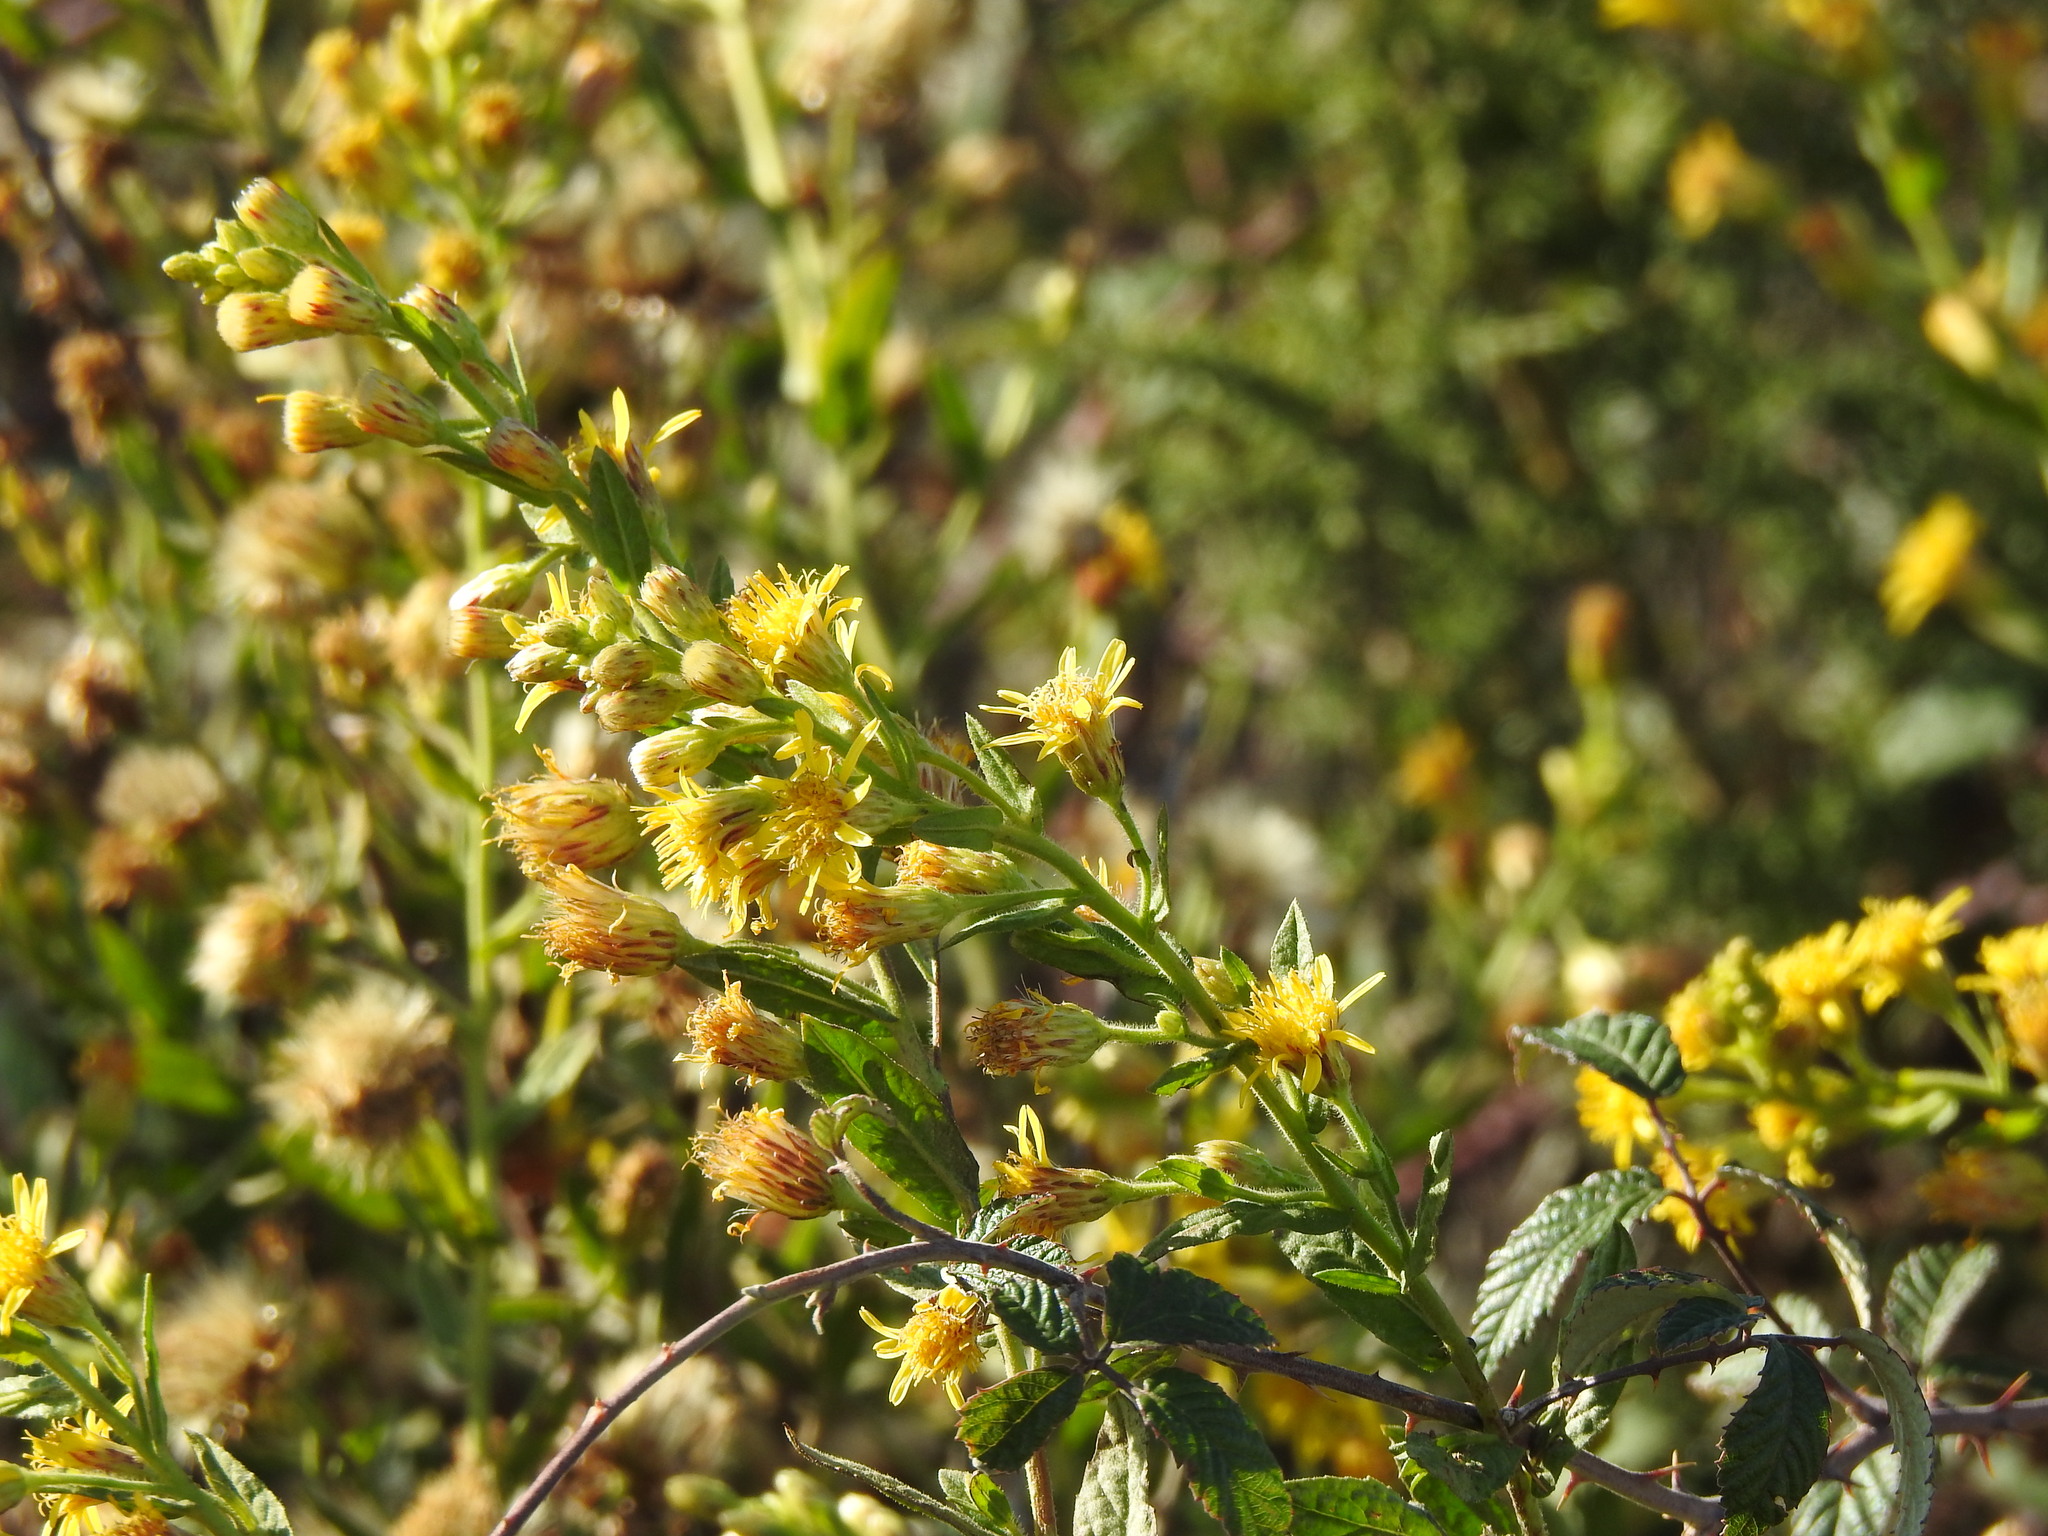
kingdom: Plantae
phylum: Tracheophyta
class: Magnoliopsida
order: Asterales
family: Asteraceae
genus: Dittrichia
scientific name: Dittrichia viscosa
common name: Woody fleabane
